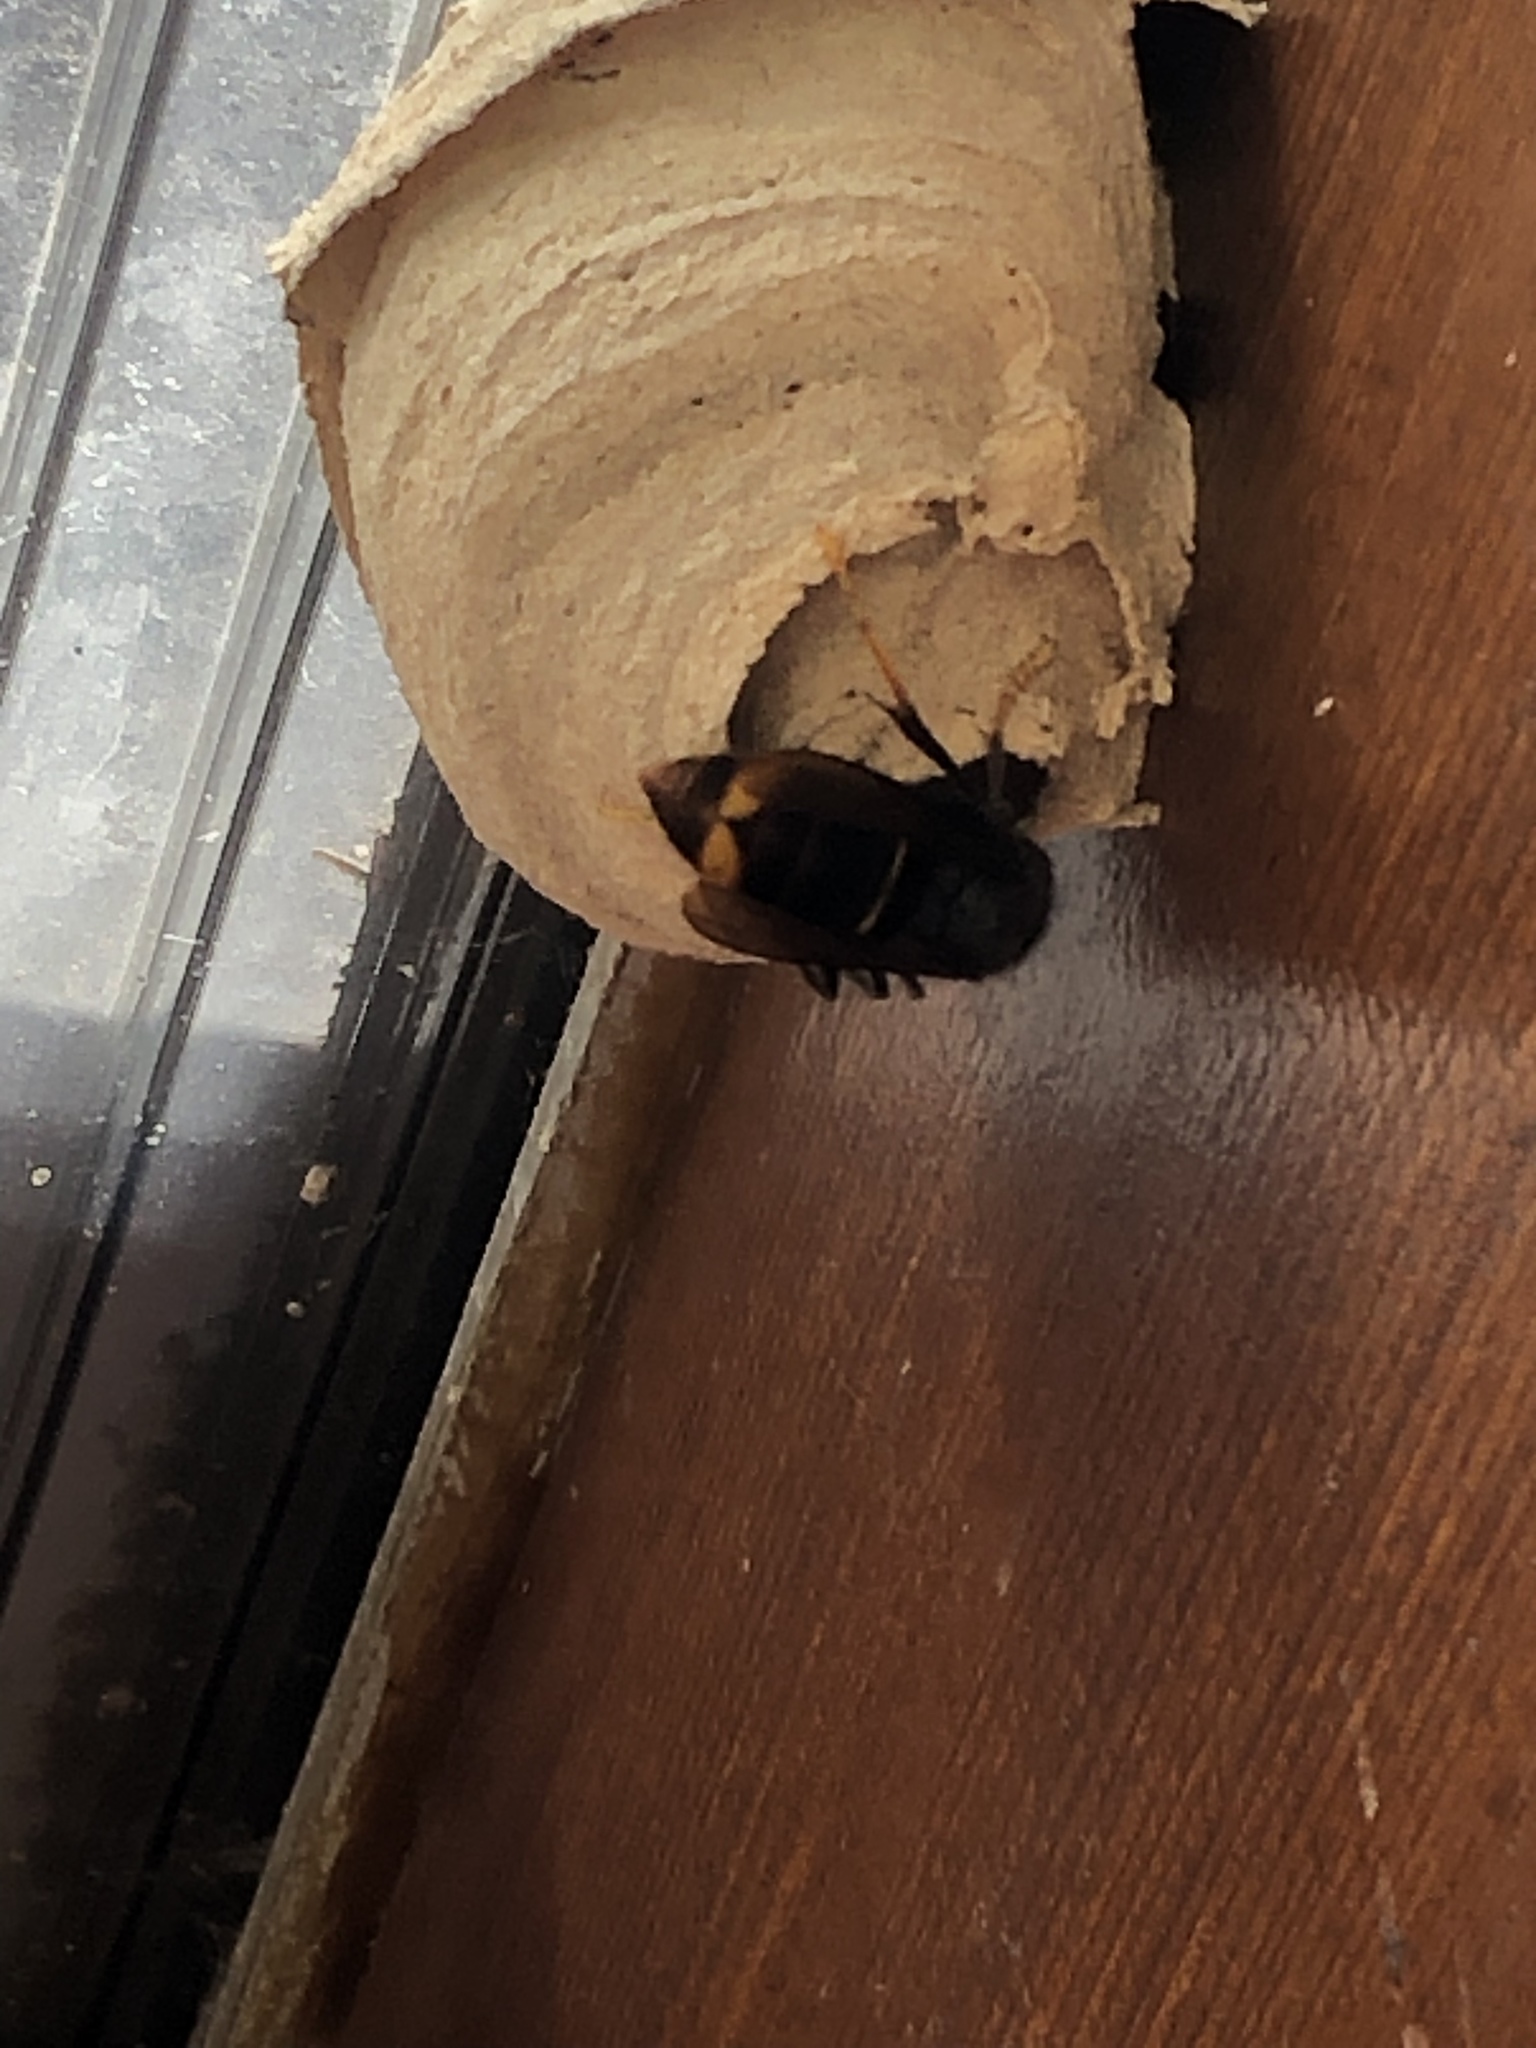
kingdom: Animalia
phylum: Arthropoda
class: Insecta
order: Hymenoptera
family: Vespidae
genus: Vespa
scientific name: Vespa velutina
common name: Asian hornet
